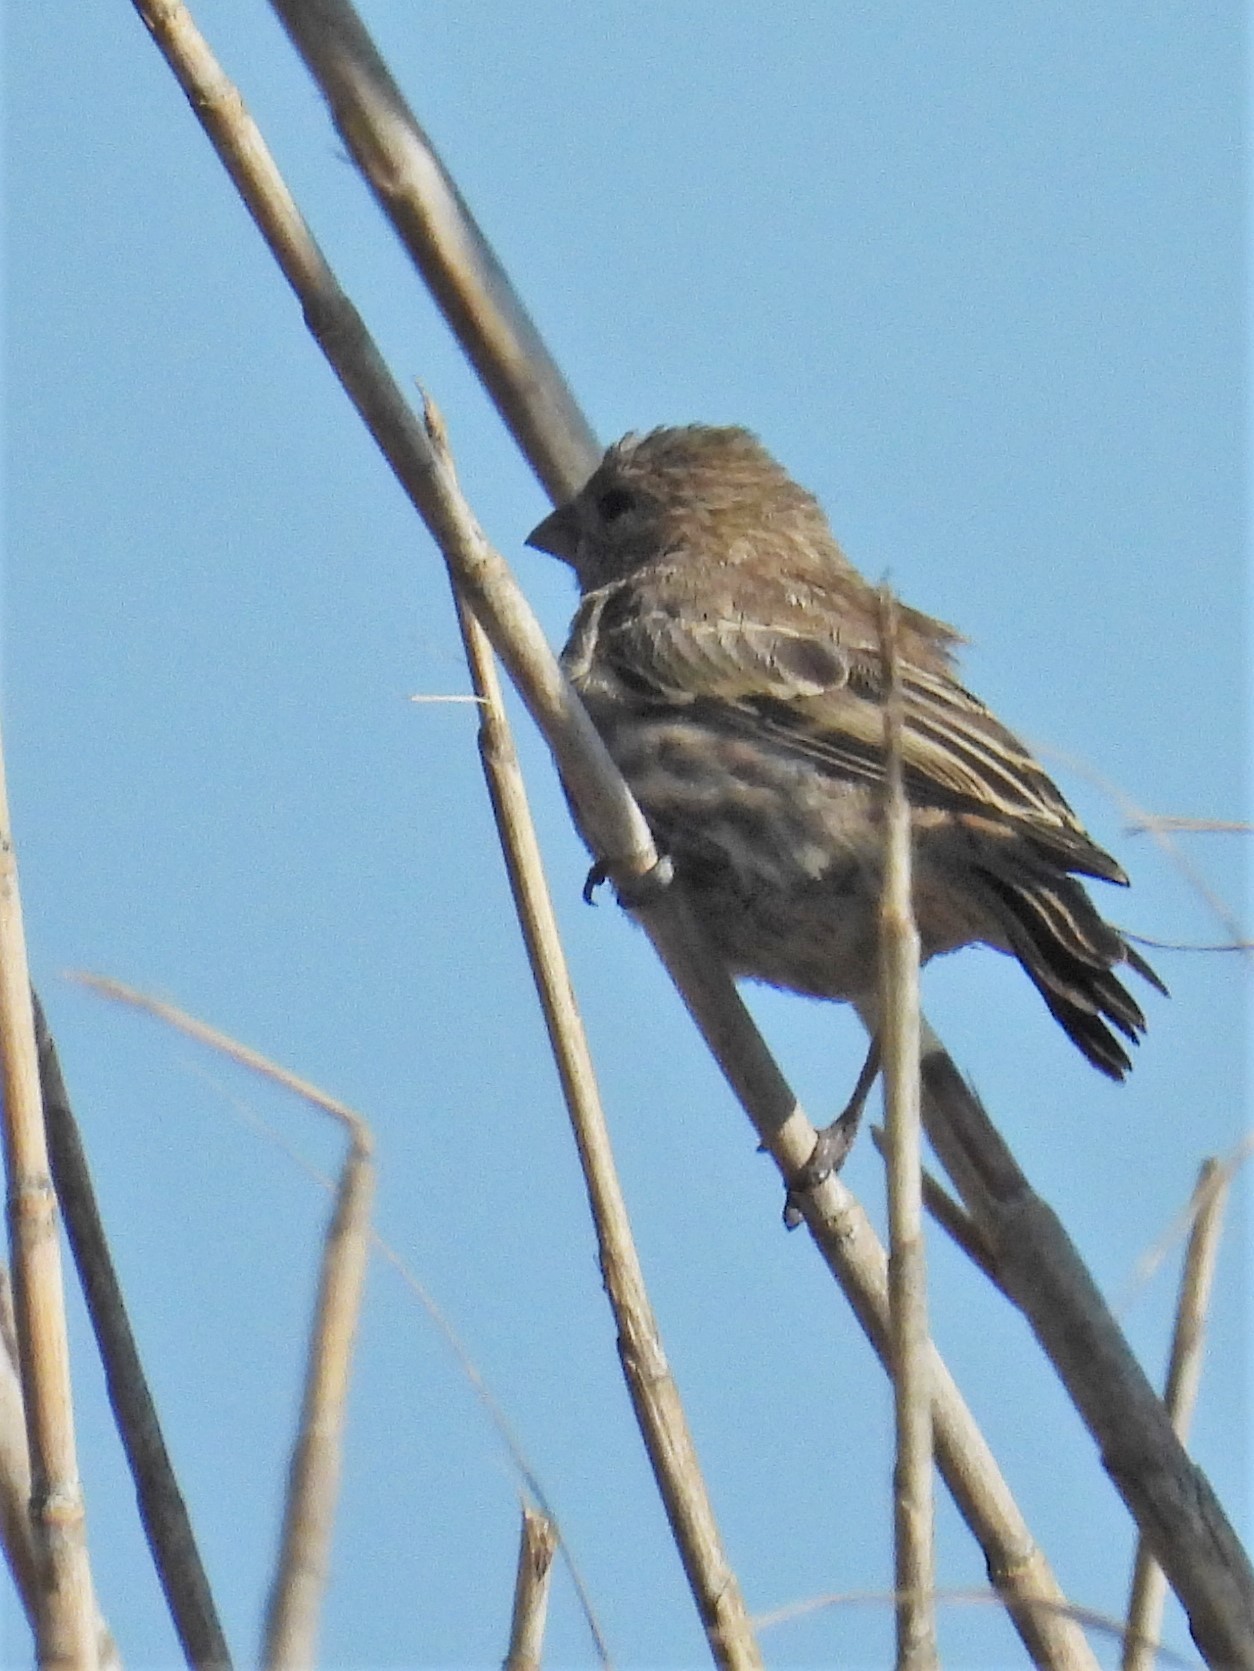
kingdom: Animalia
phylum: Chordata
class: Aves
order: Passeriformes
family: Fringillidae
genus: Haemorhous
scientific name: Haemorhous mexicanus
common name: House finch
